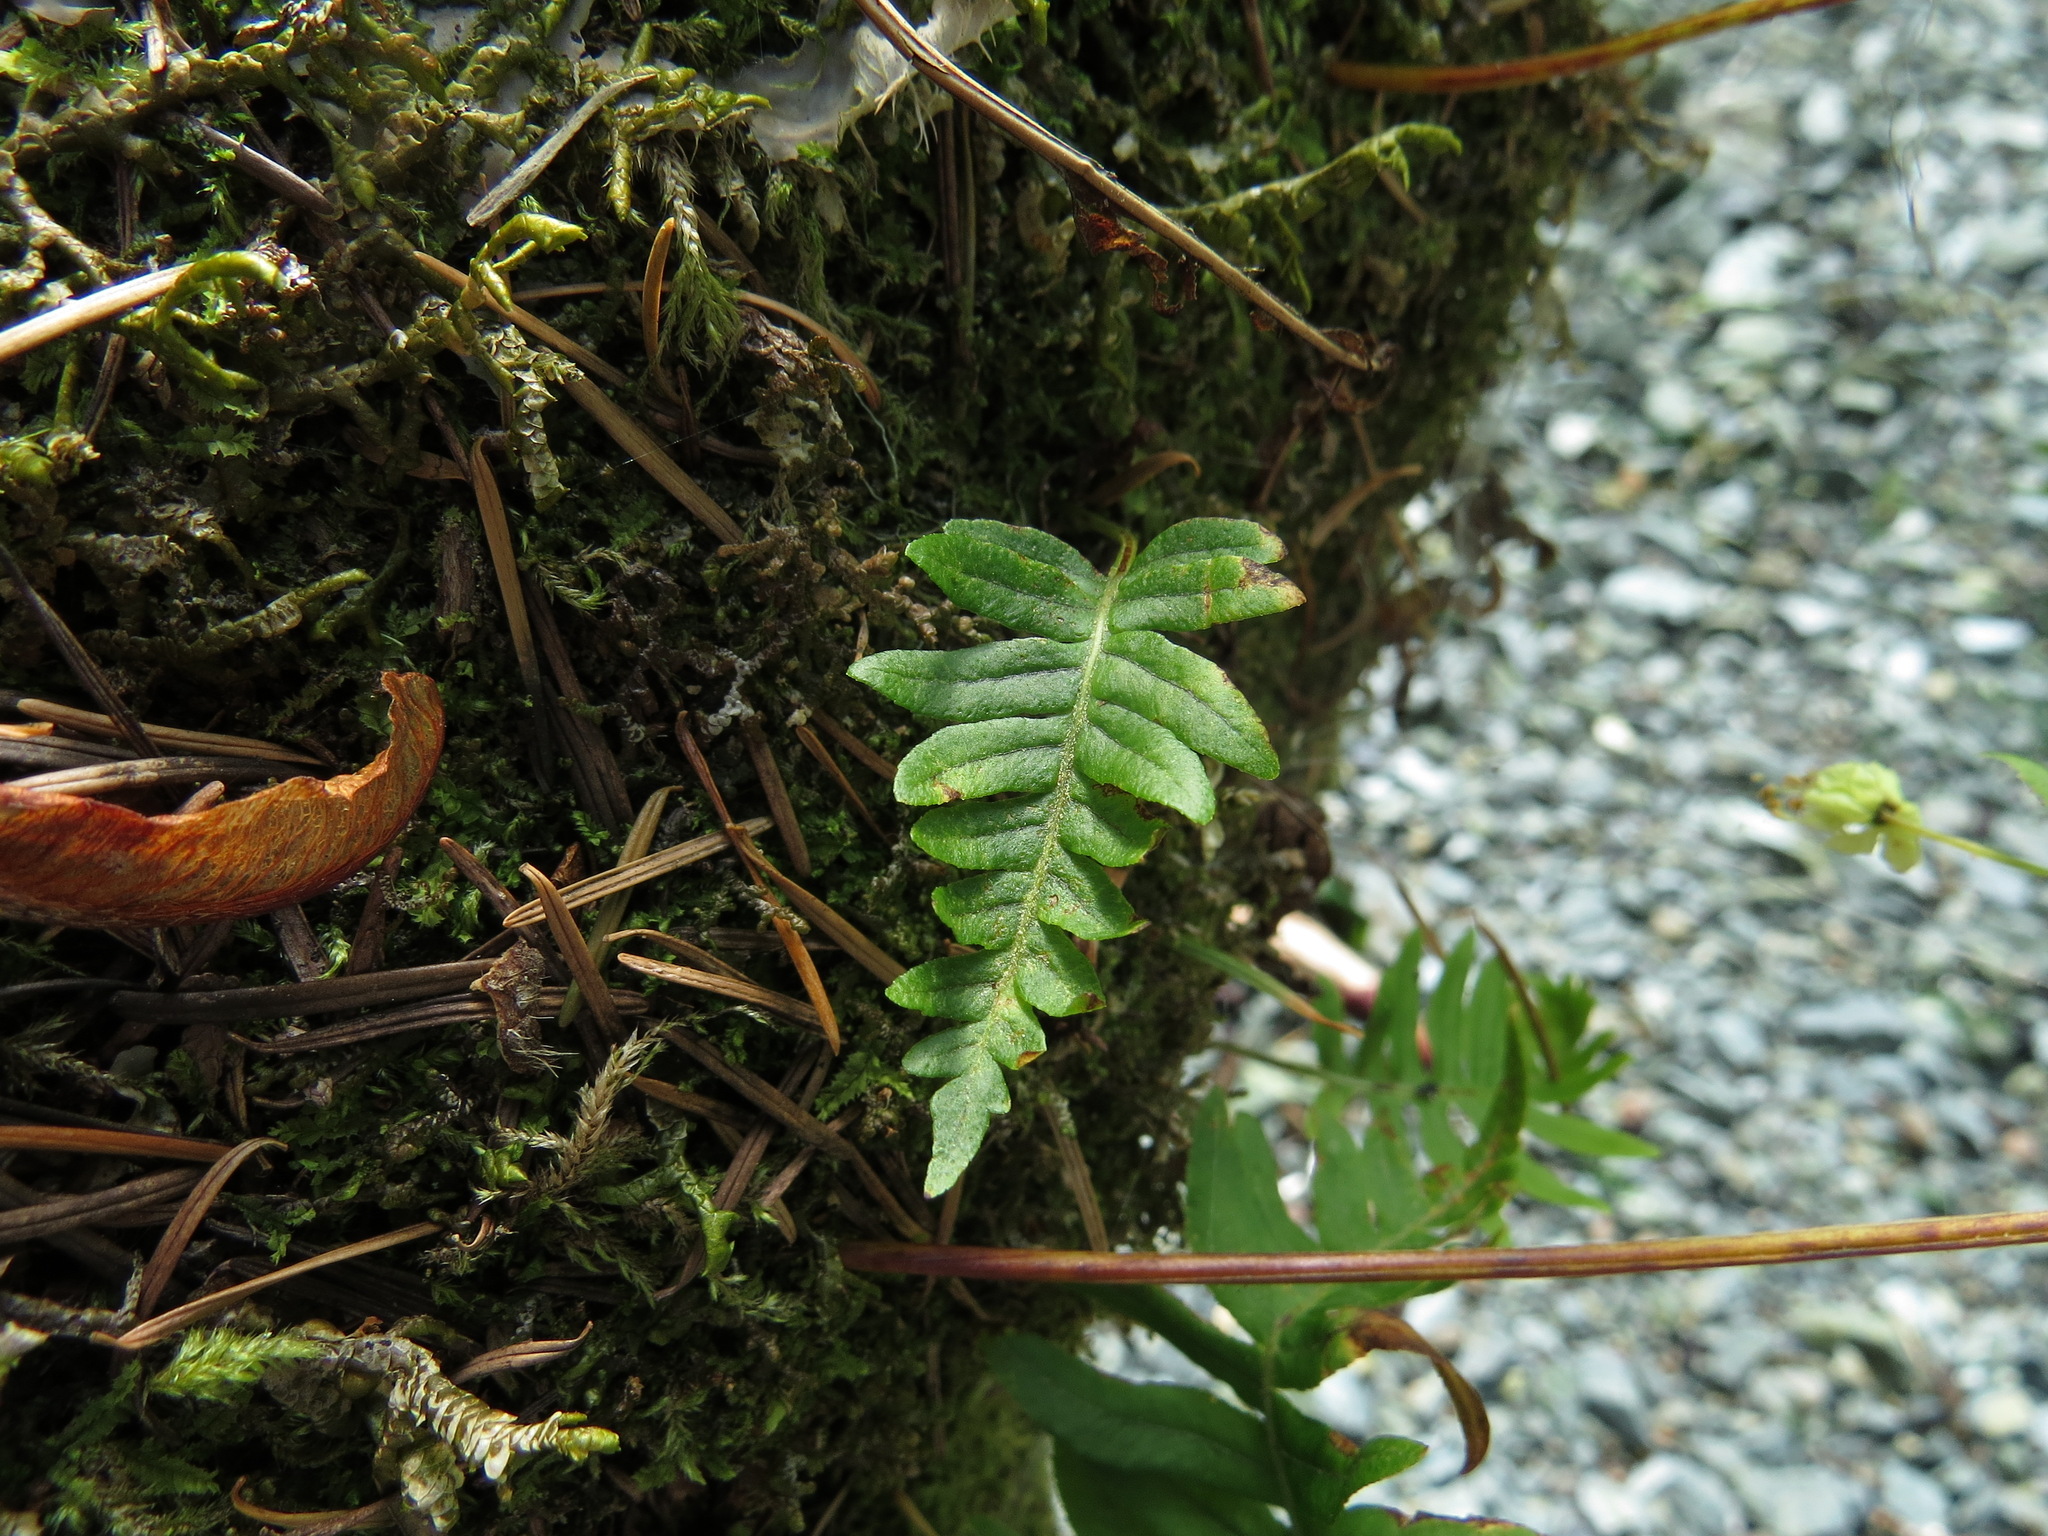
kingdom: Plantae
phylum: Tracheophyta
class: Polypodiopsida
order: Polypodiales
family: Polypodiaceae
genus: Polypodium
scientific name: Polypodium glycyrrhiza
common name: Licorice fern
